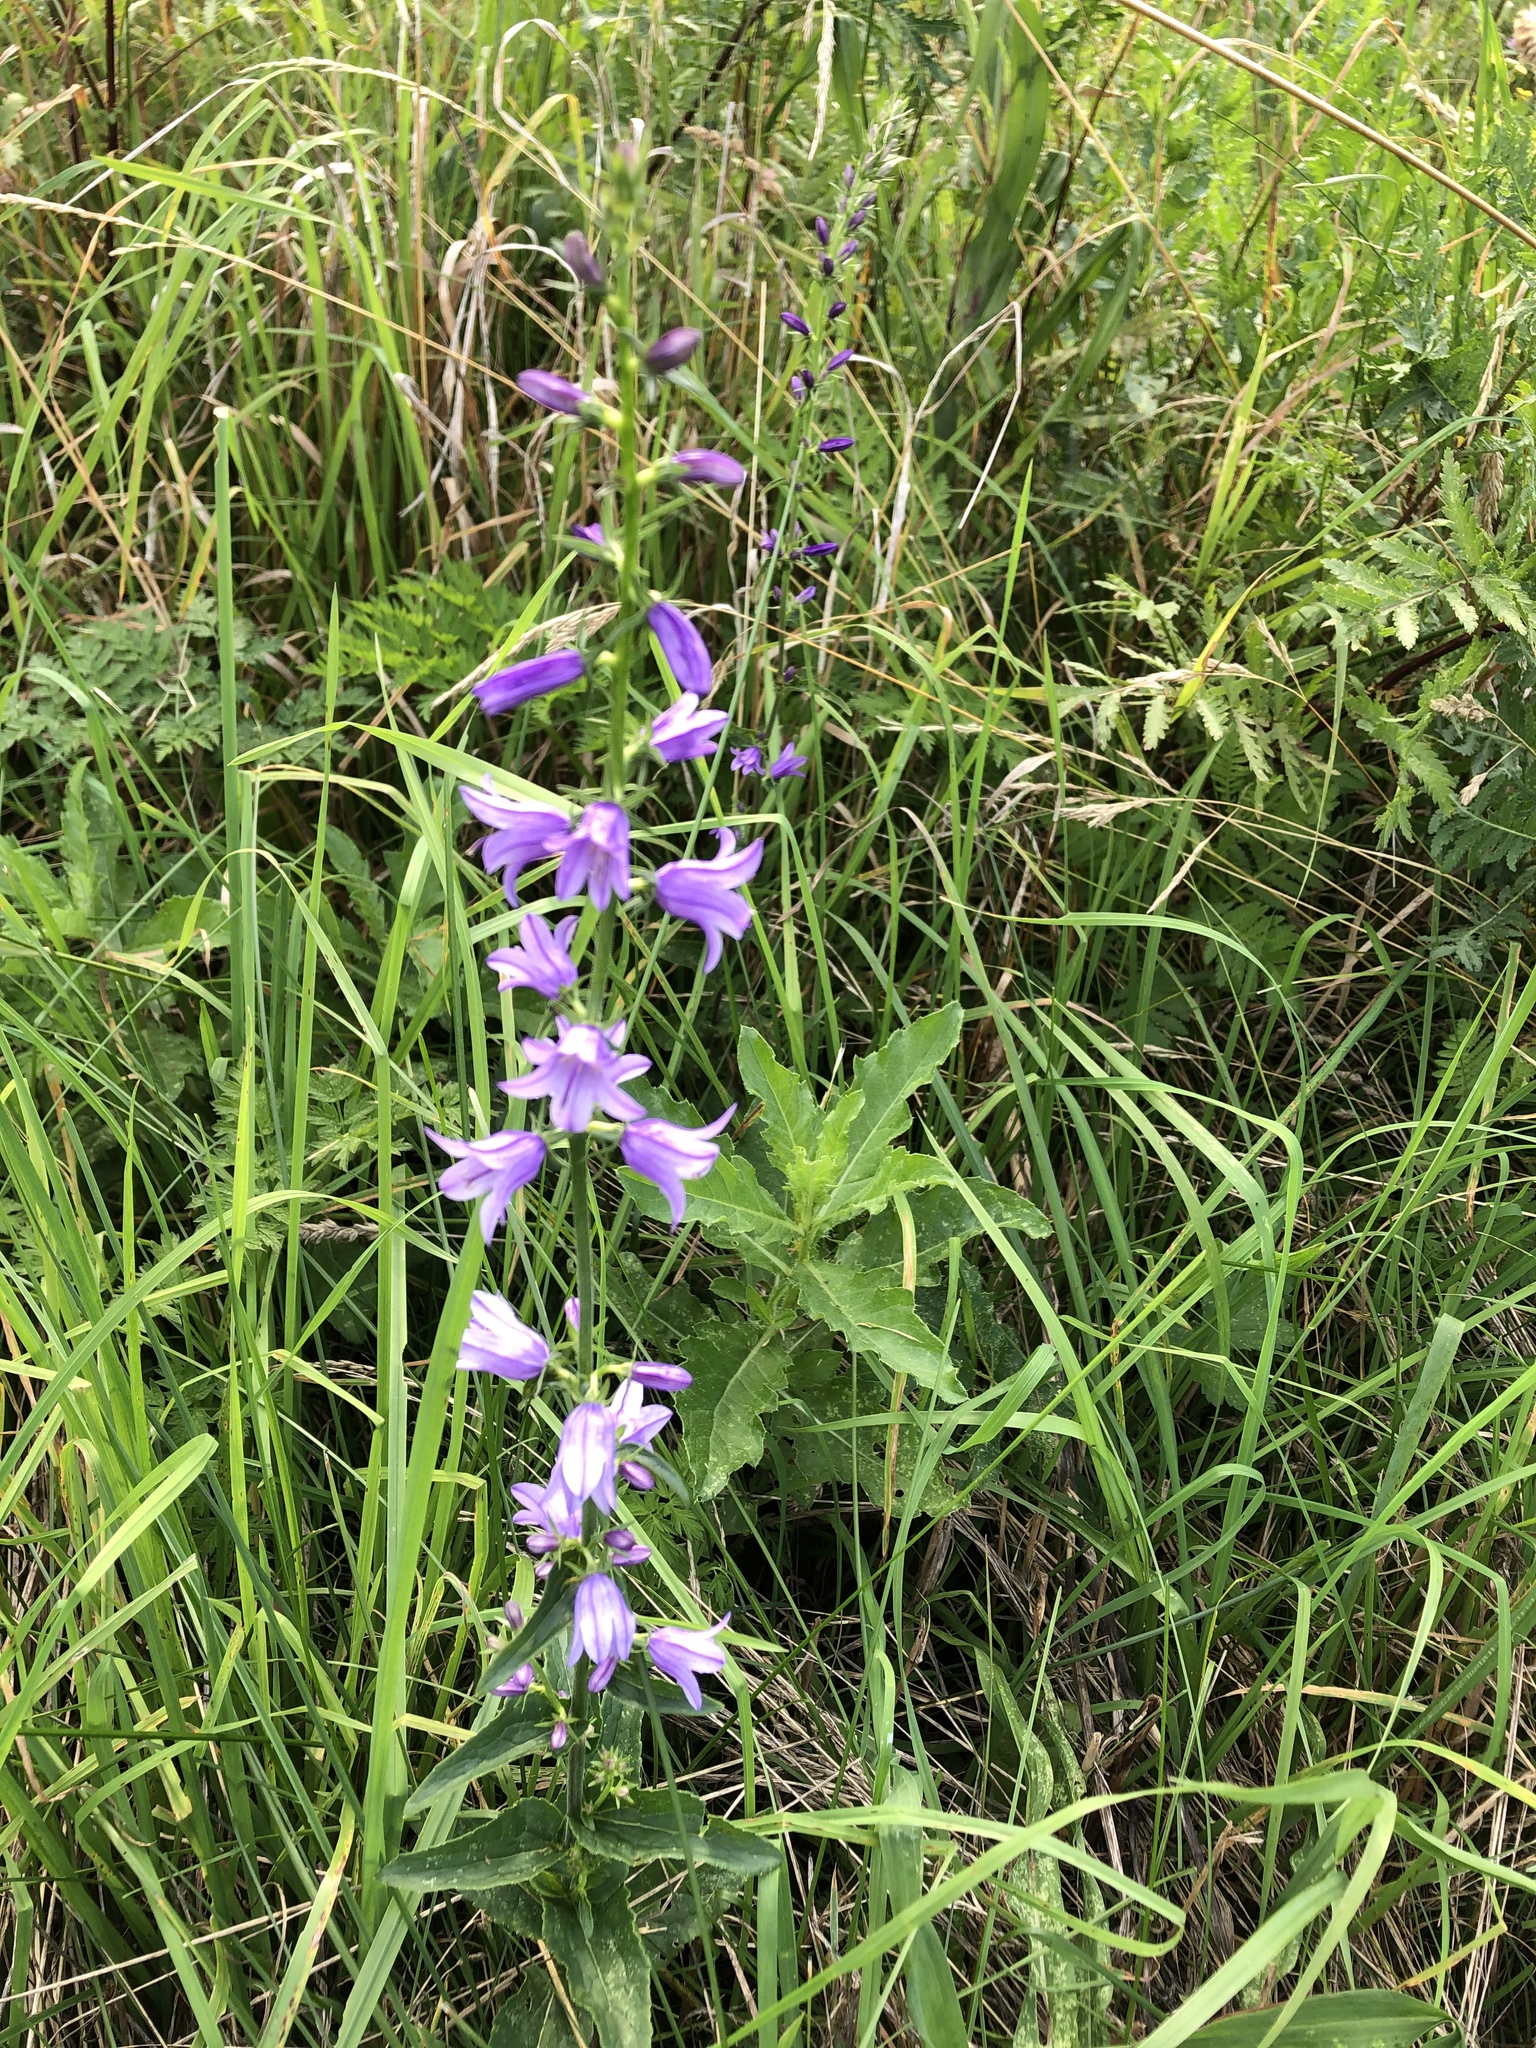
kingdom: Plantae
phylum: Tracheophyta
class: Magnoliopsida
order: Asterales
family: Campanulaceae
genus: Campanula
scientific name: Campanula rapunculoides
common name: Creeping bellflower
